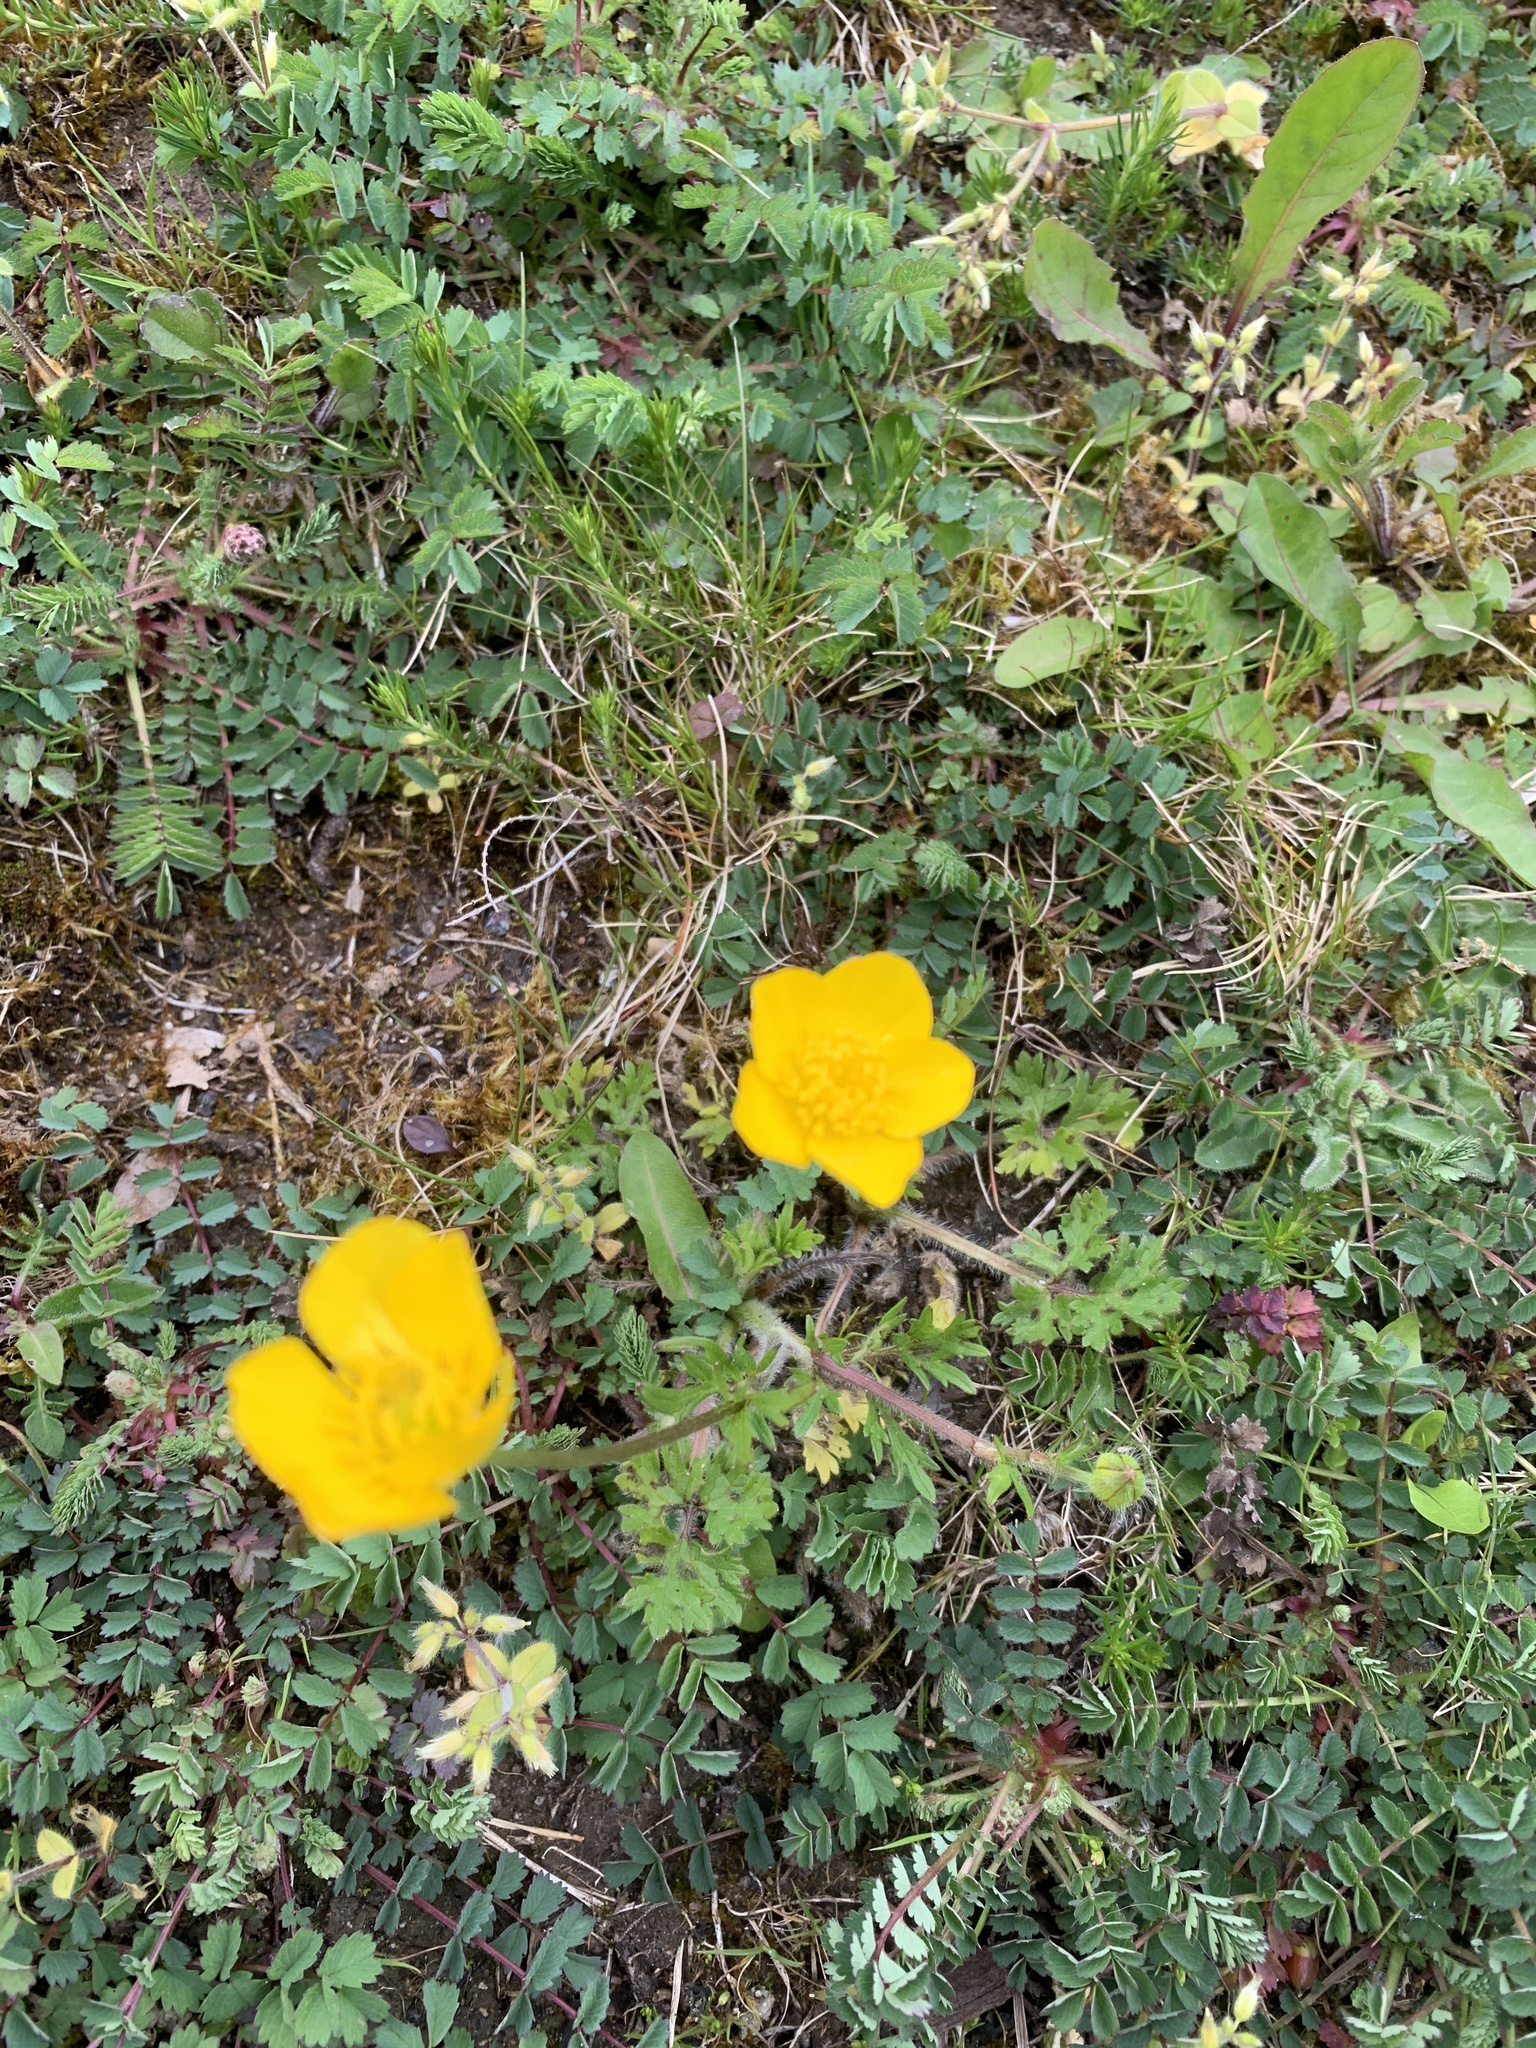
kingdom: Plantae
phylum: Tracheophyta
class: Magnoliopsida
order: Ranunculales
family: Ranunculaceae
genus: Ranunculus
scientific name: Ranunculus acris
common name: Meadow buttercup
